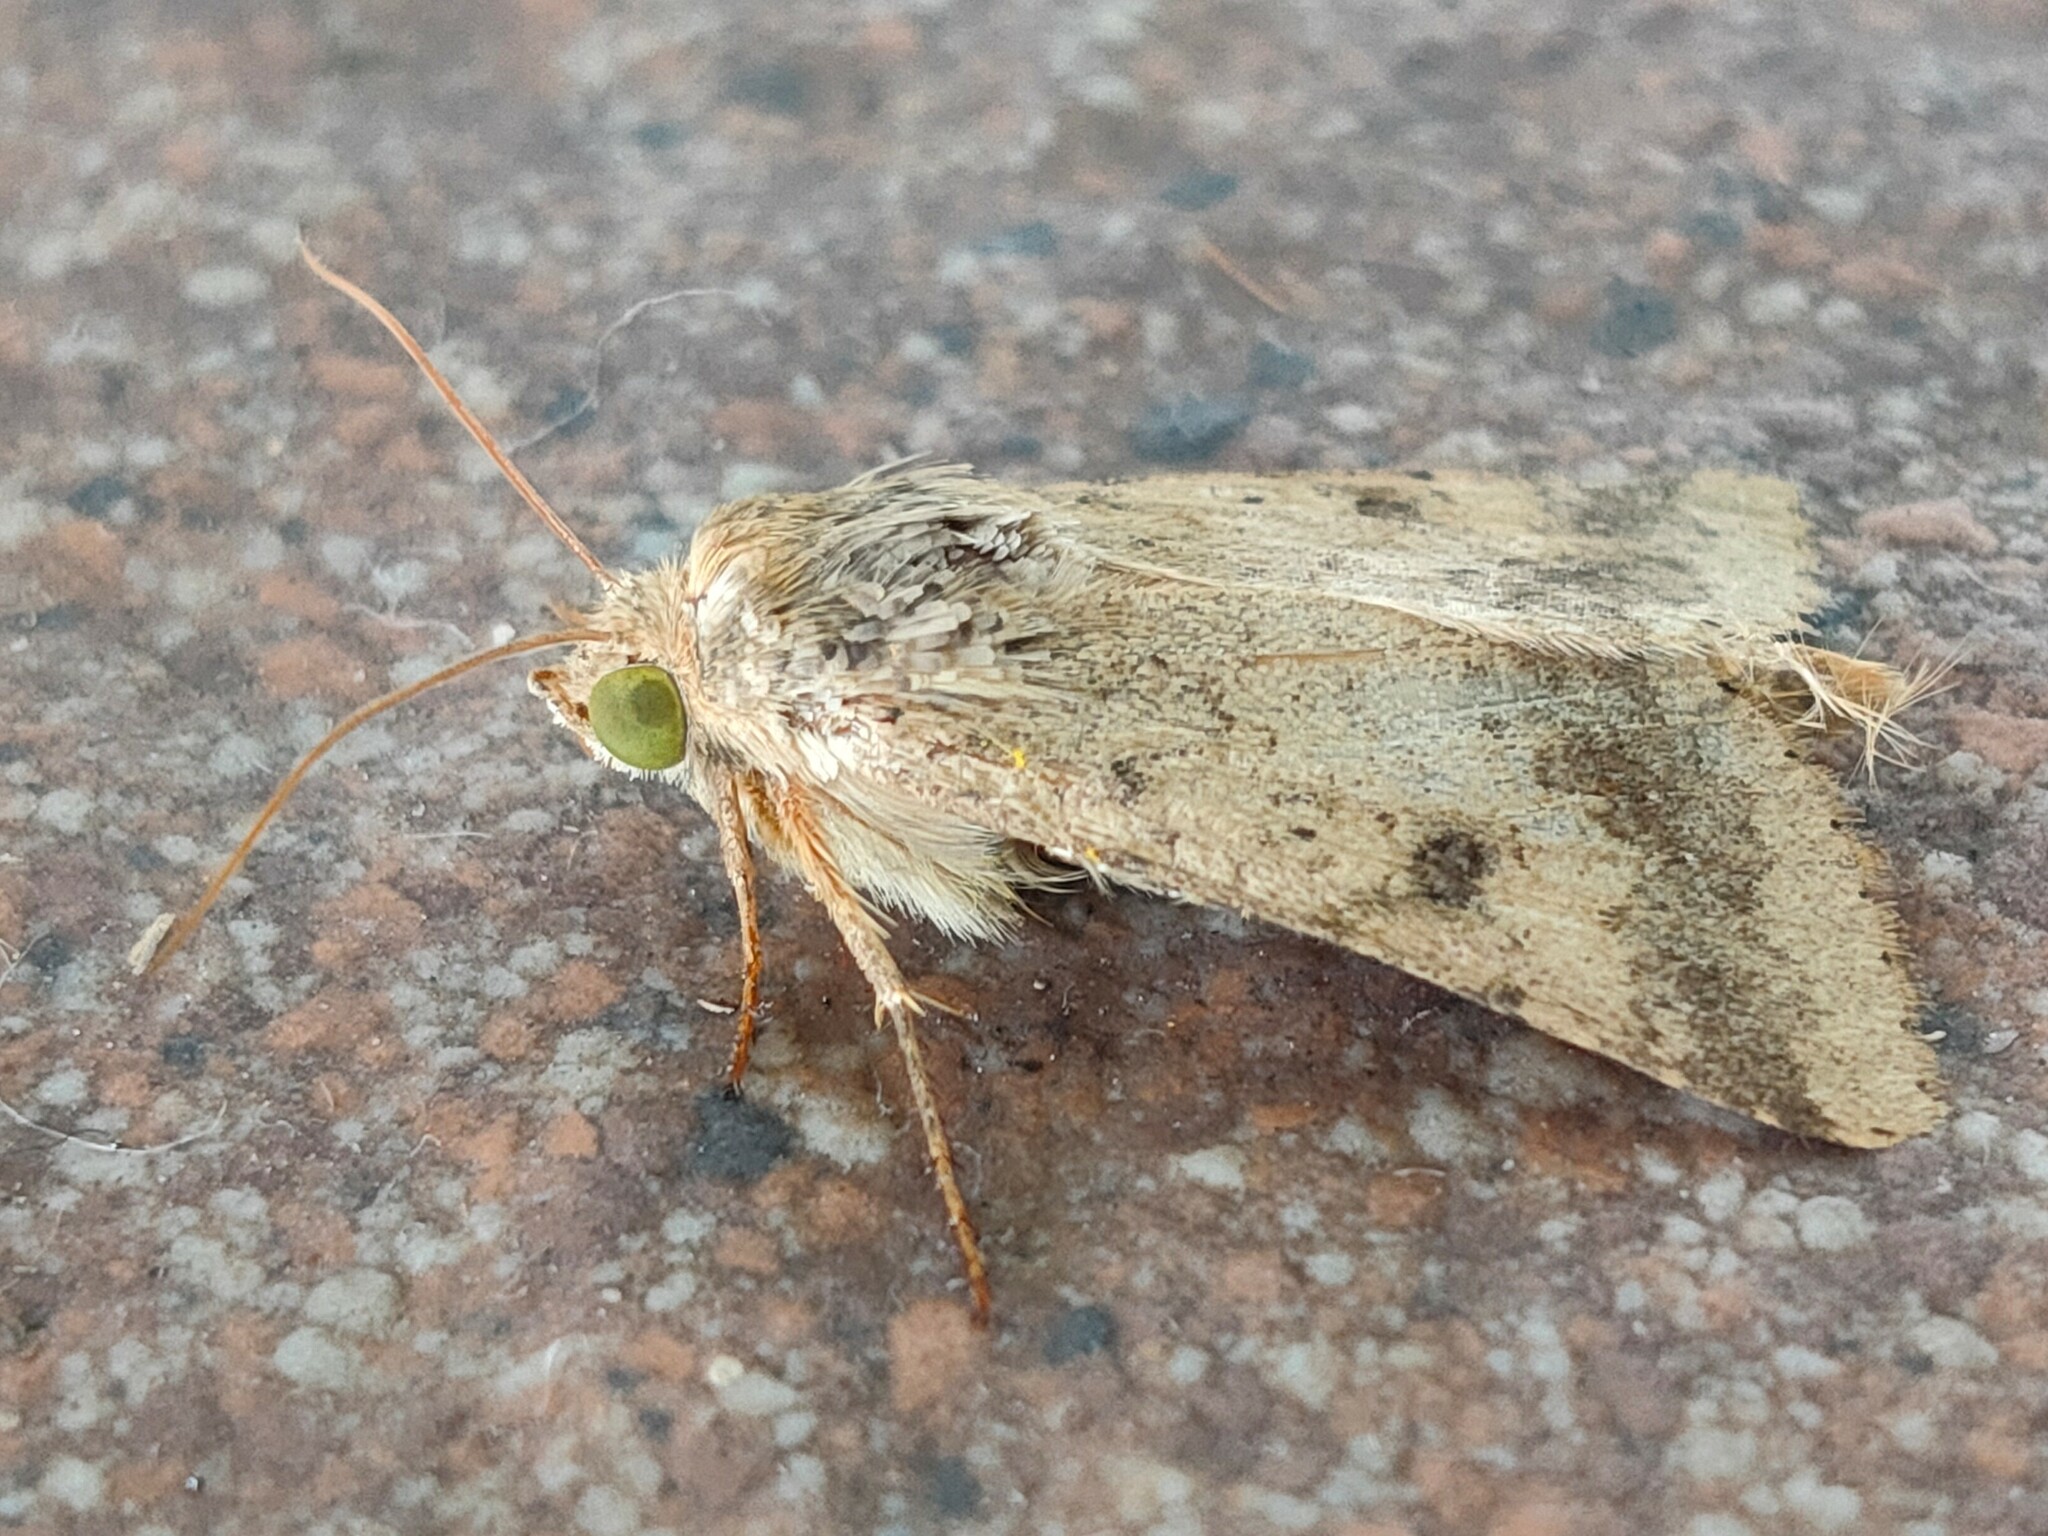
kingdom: Animalia
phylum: Arthropoda
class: Insecta
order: Lepidoptera
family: Noctuidae
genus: Helicoverpa
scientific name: Helicoverpa armigera
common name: Cotton bollworm
